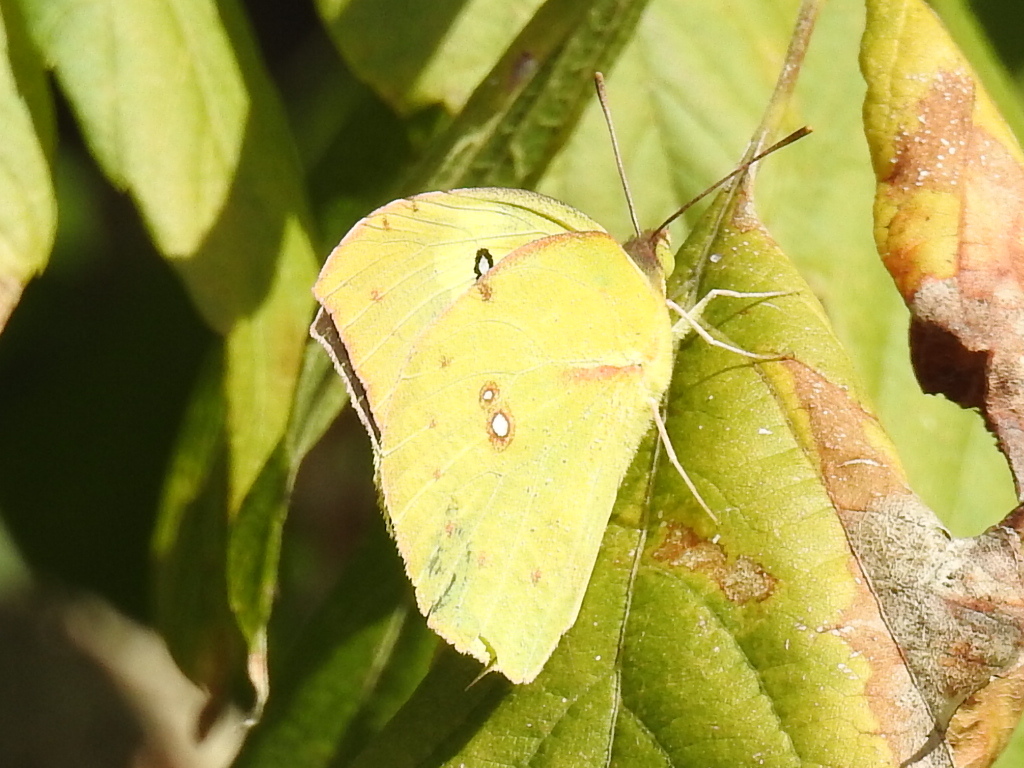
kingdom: Animalia
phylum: Arthropoda
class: Insecta
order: Lepidoptera
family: Pieridae
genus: Zerene
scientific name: Zerene cesonia
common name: Southern dogface
